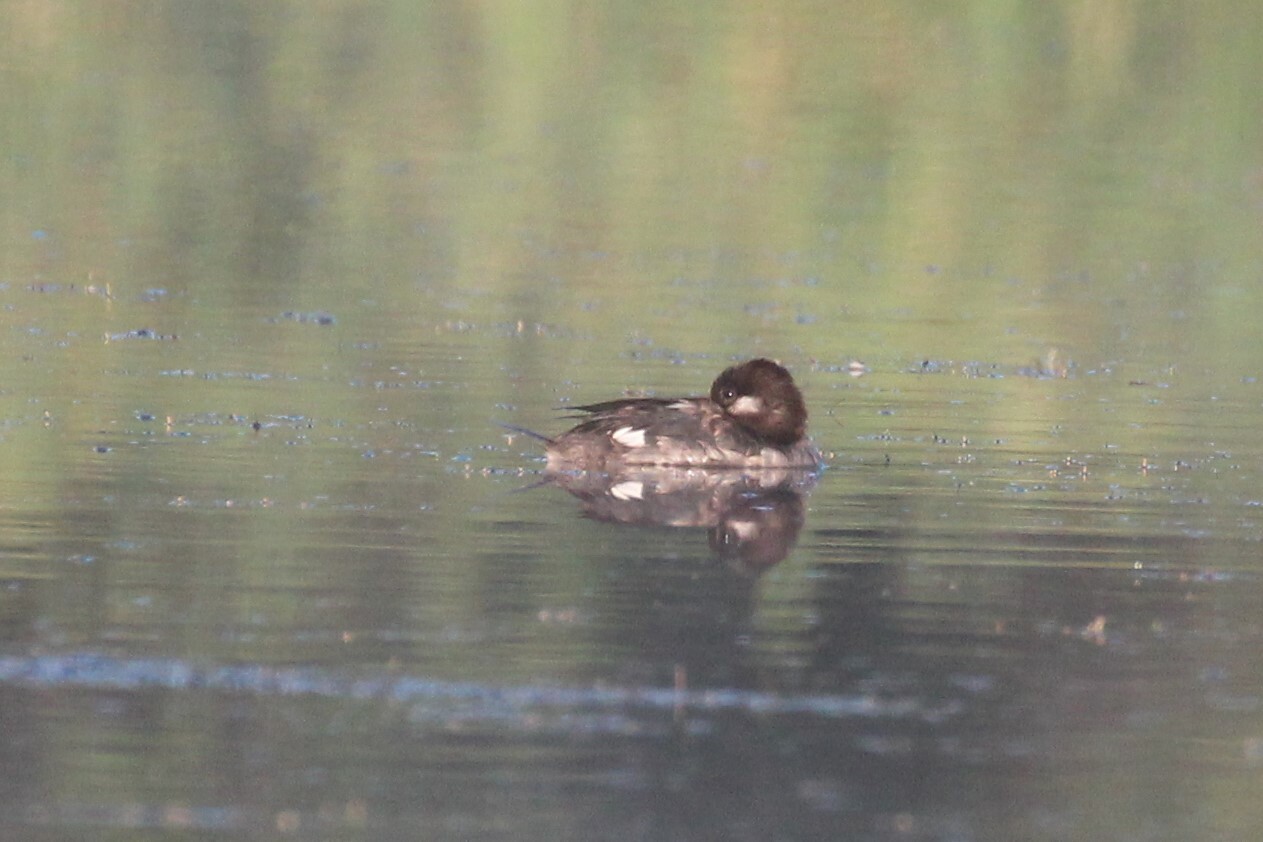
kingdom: Animalia
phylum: Chordata
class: Aves
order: Anseriformes
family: Anatidae
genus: Bucephala
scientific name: Bucephala clangula
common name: Common goldeneye
